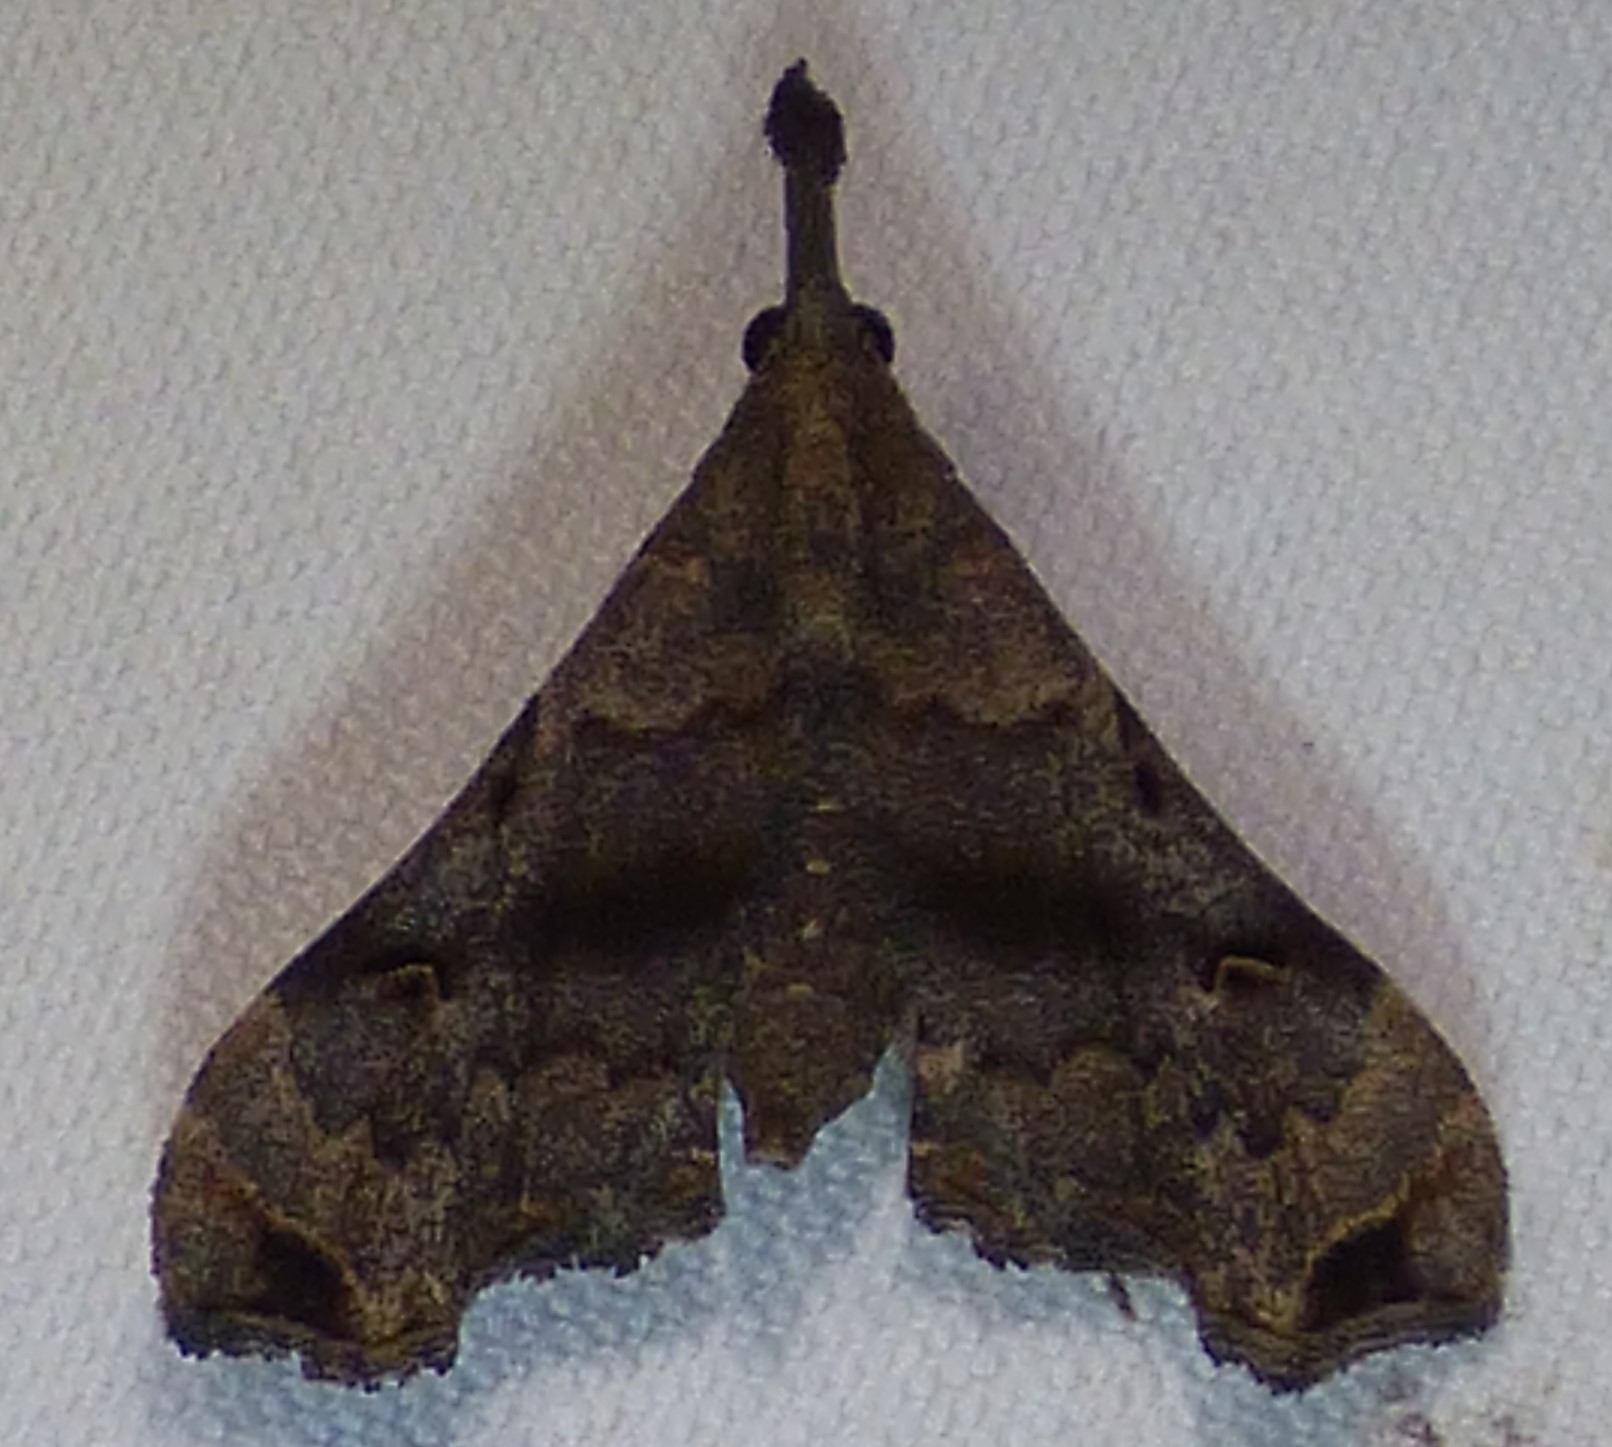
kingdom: Animalia
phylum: Arthropoda
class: Insecta
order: Lepidoptera
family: Erebidae
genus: Palthis
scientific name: Palthis asopialis
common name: Faint-spotted palthis moth
